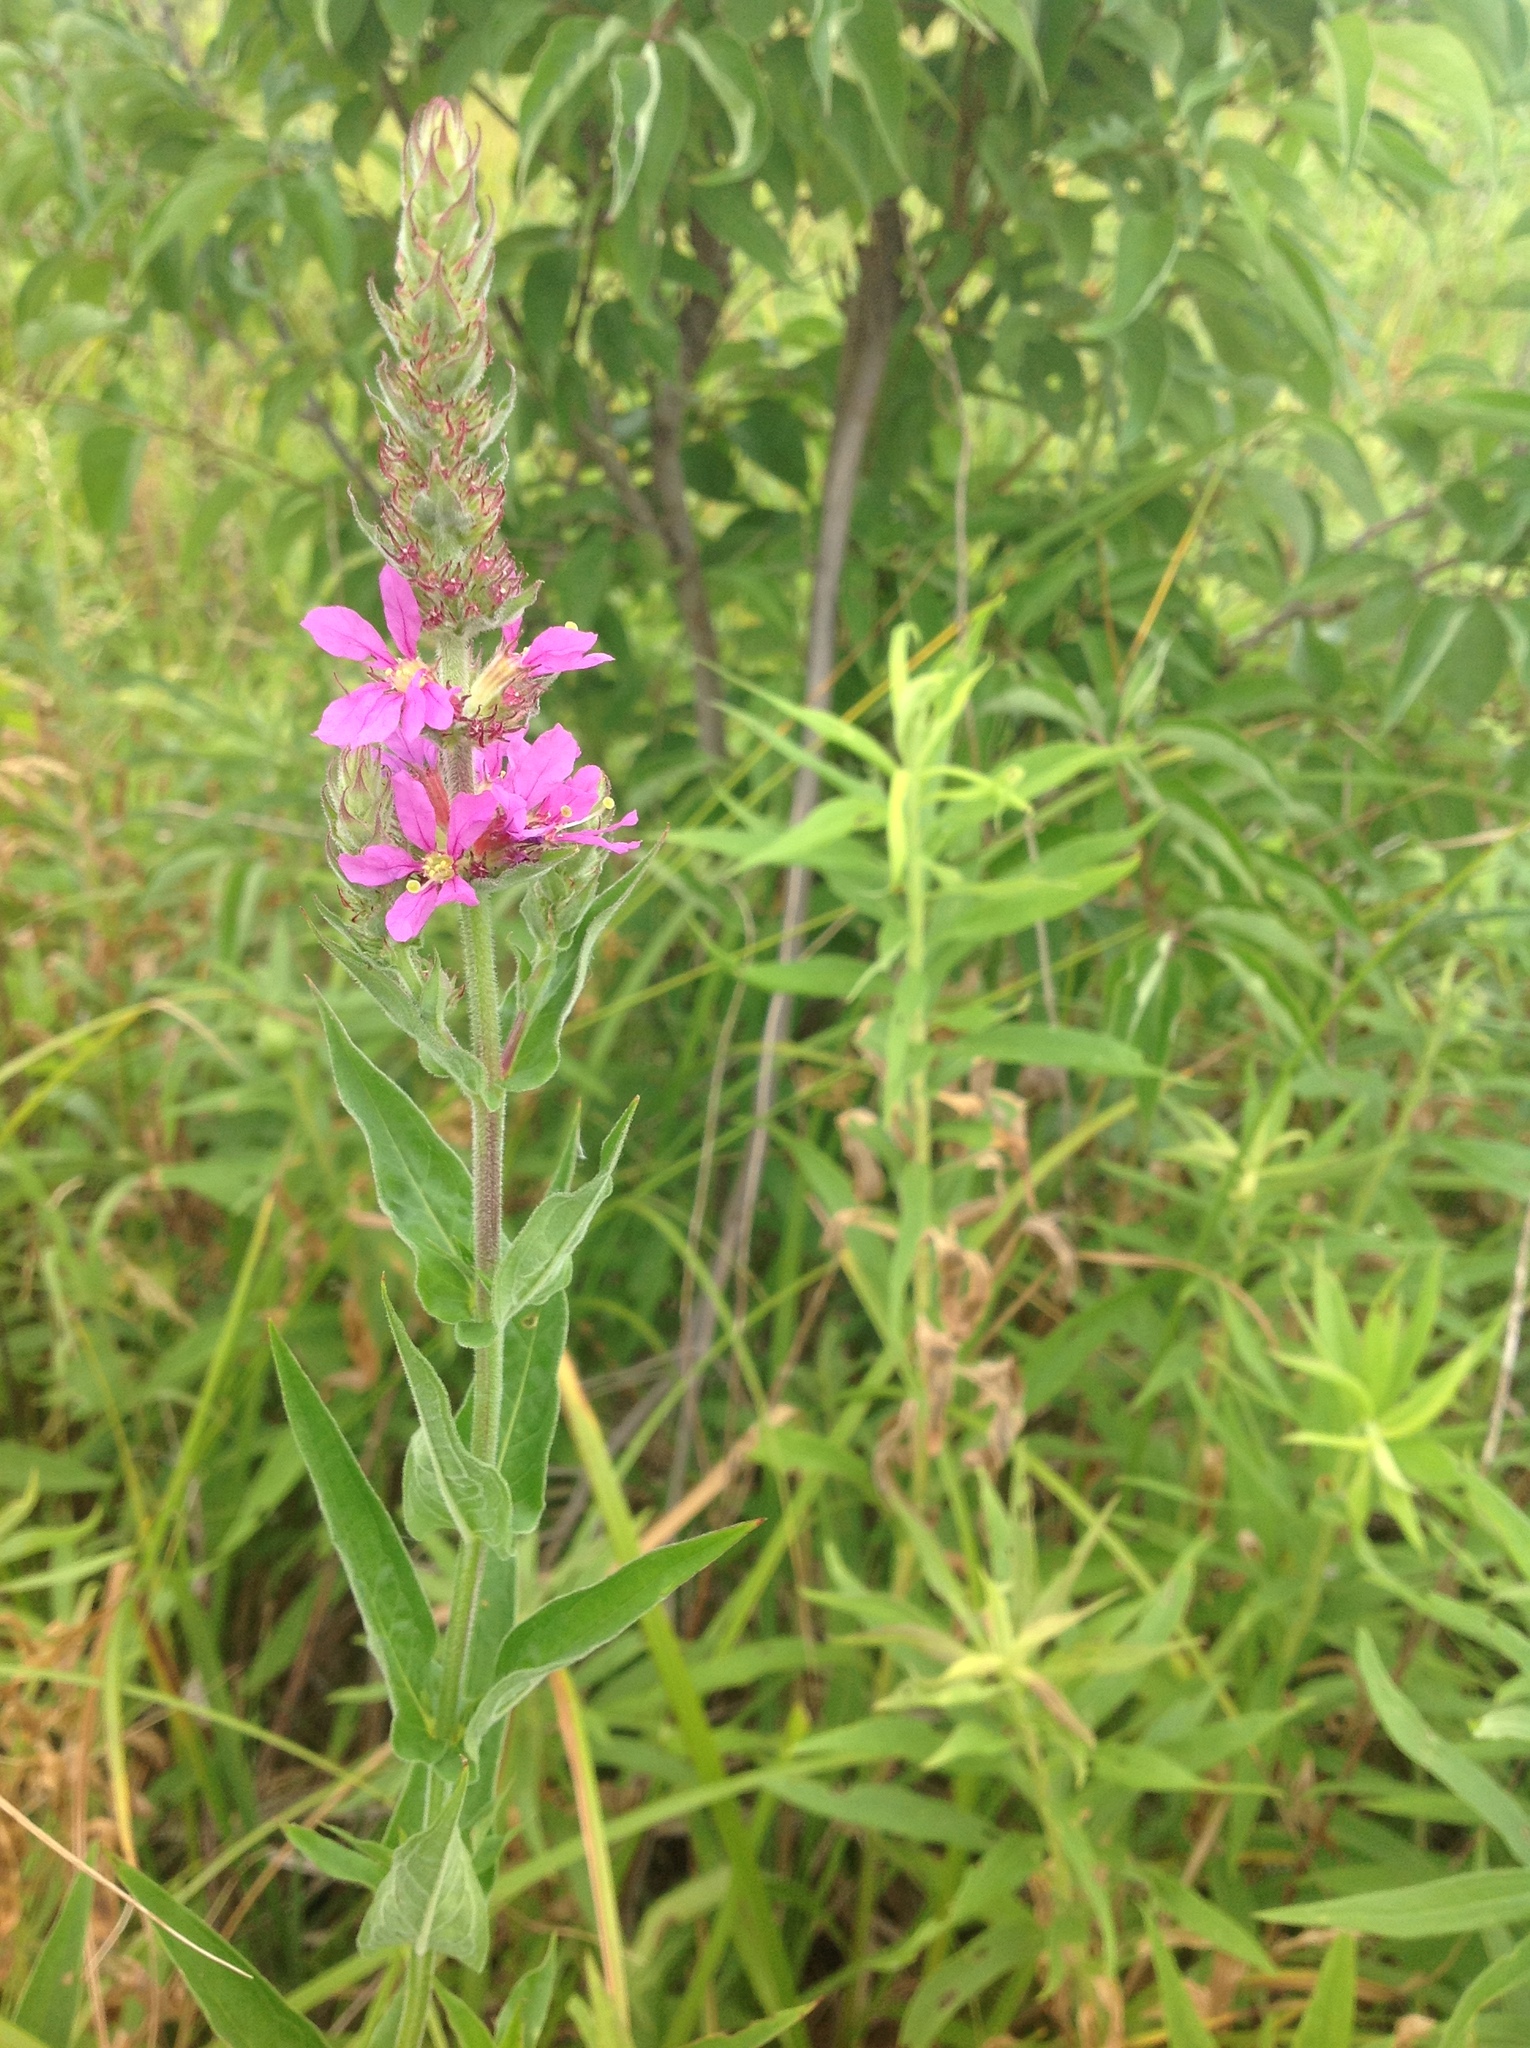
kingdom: Plantae
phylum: Tracheophyta
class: Magnoliopsida
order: Myrtales
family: Lythraceae
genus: Lythrum
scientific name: Lythrum salicaria
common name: Purple loosestrife
